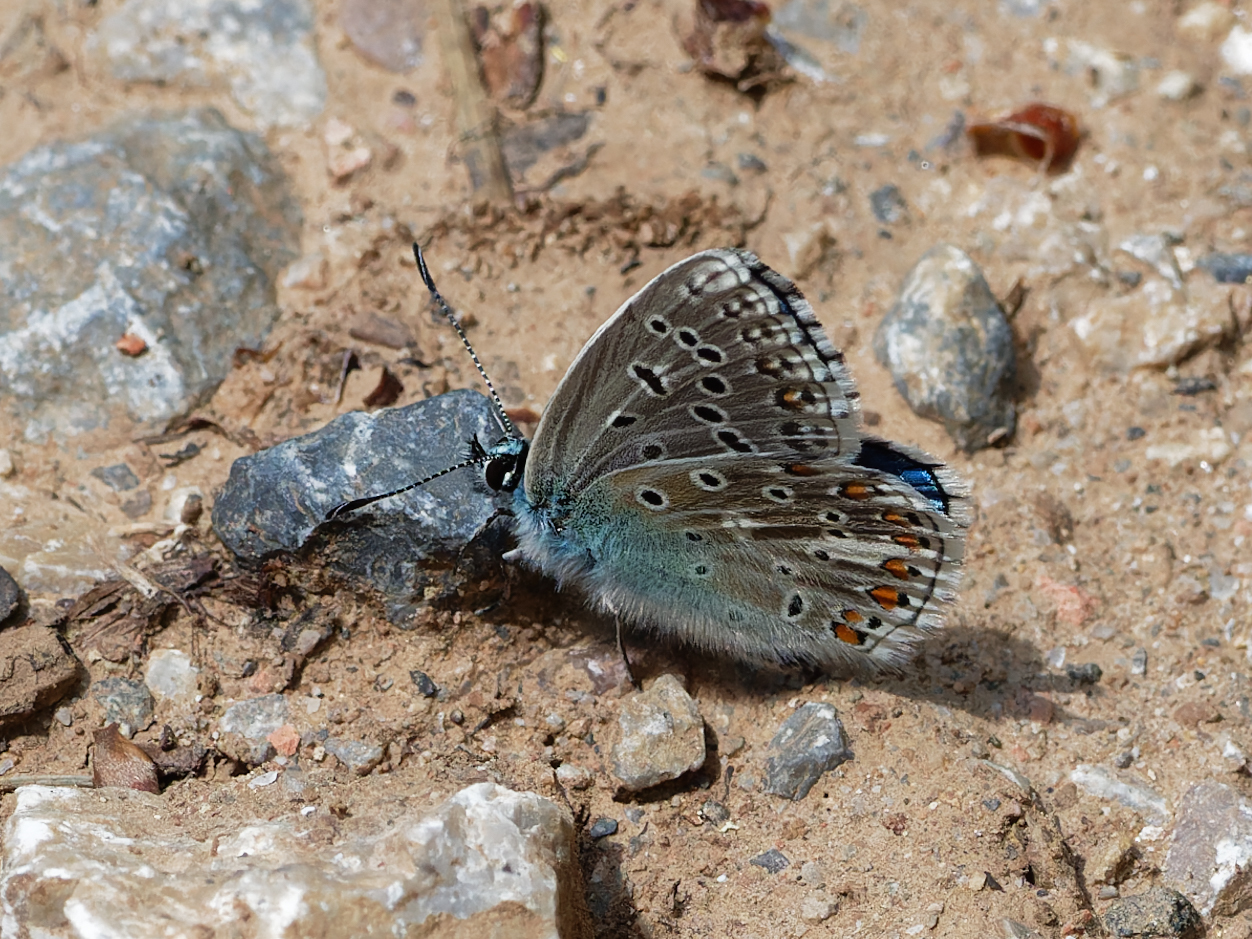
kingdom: Animalia
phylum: Arthropoda
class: Insecta
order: Lepidoptera
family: Lycaenidae
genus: Lysandra
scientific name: Lysandra bellargus
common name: Adonis blue
